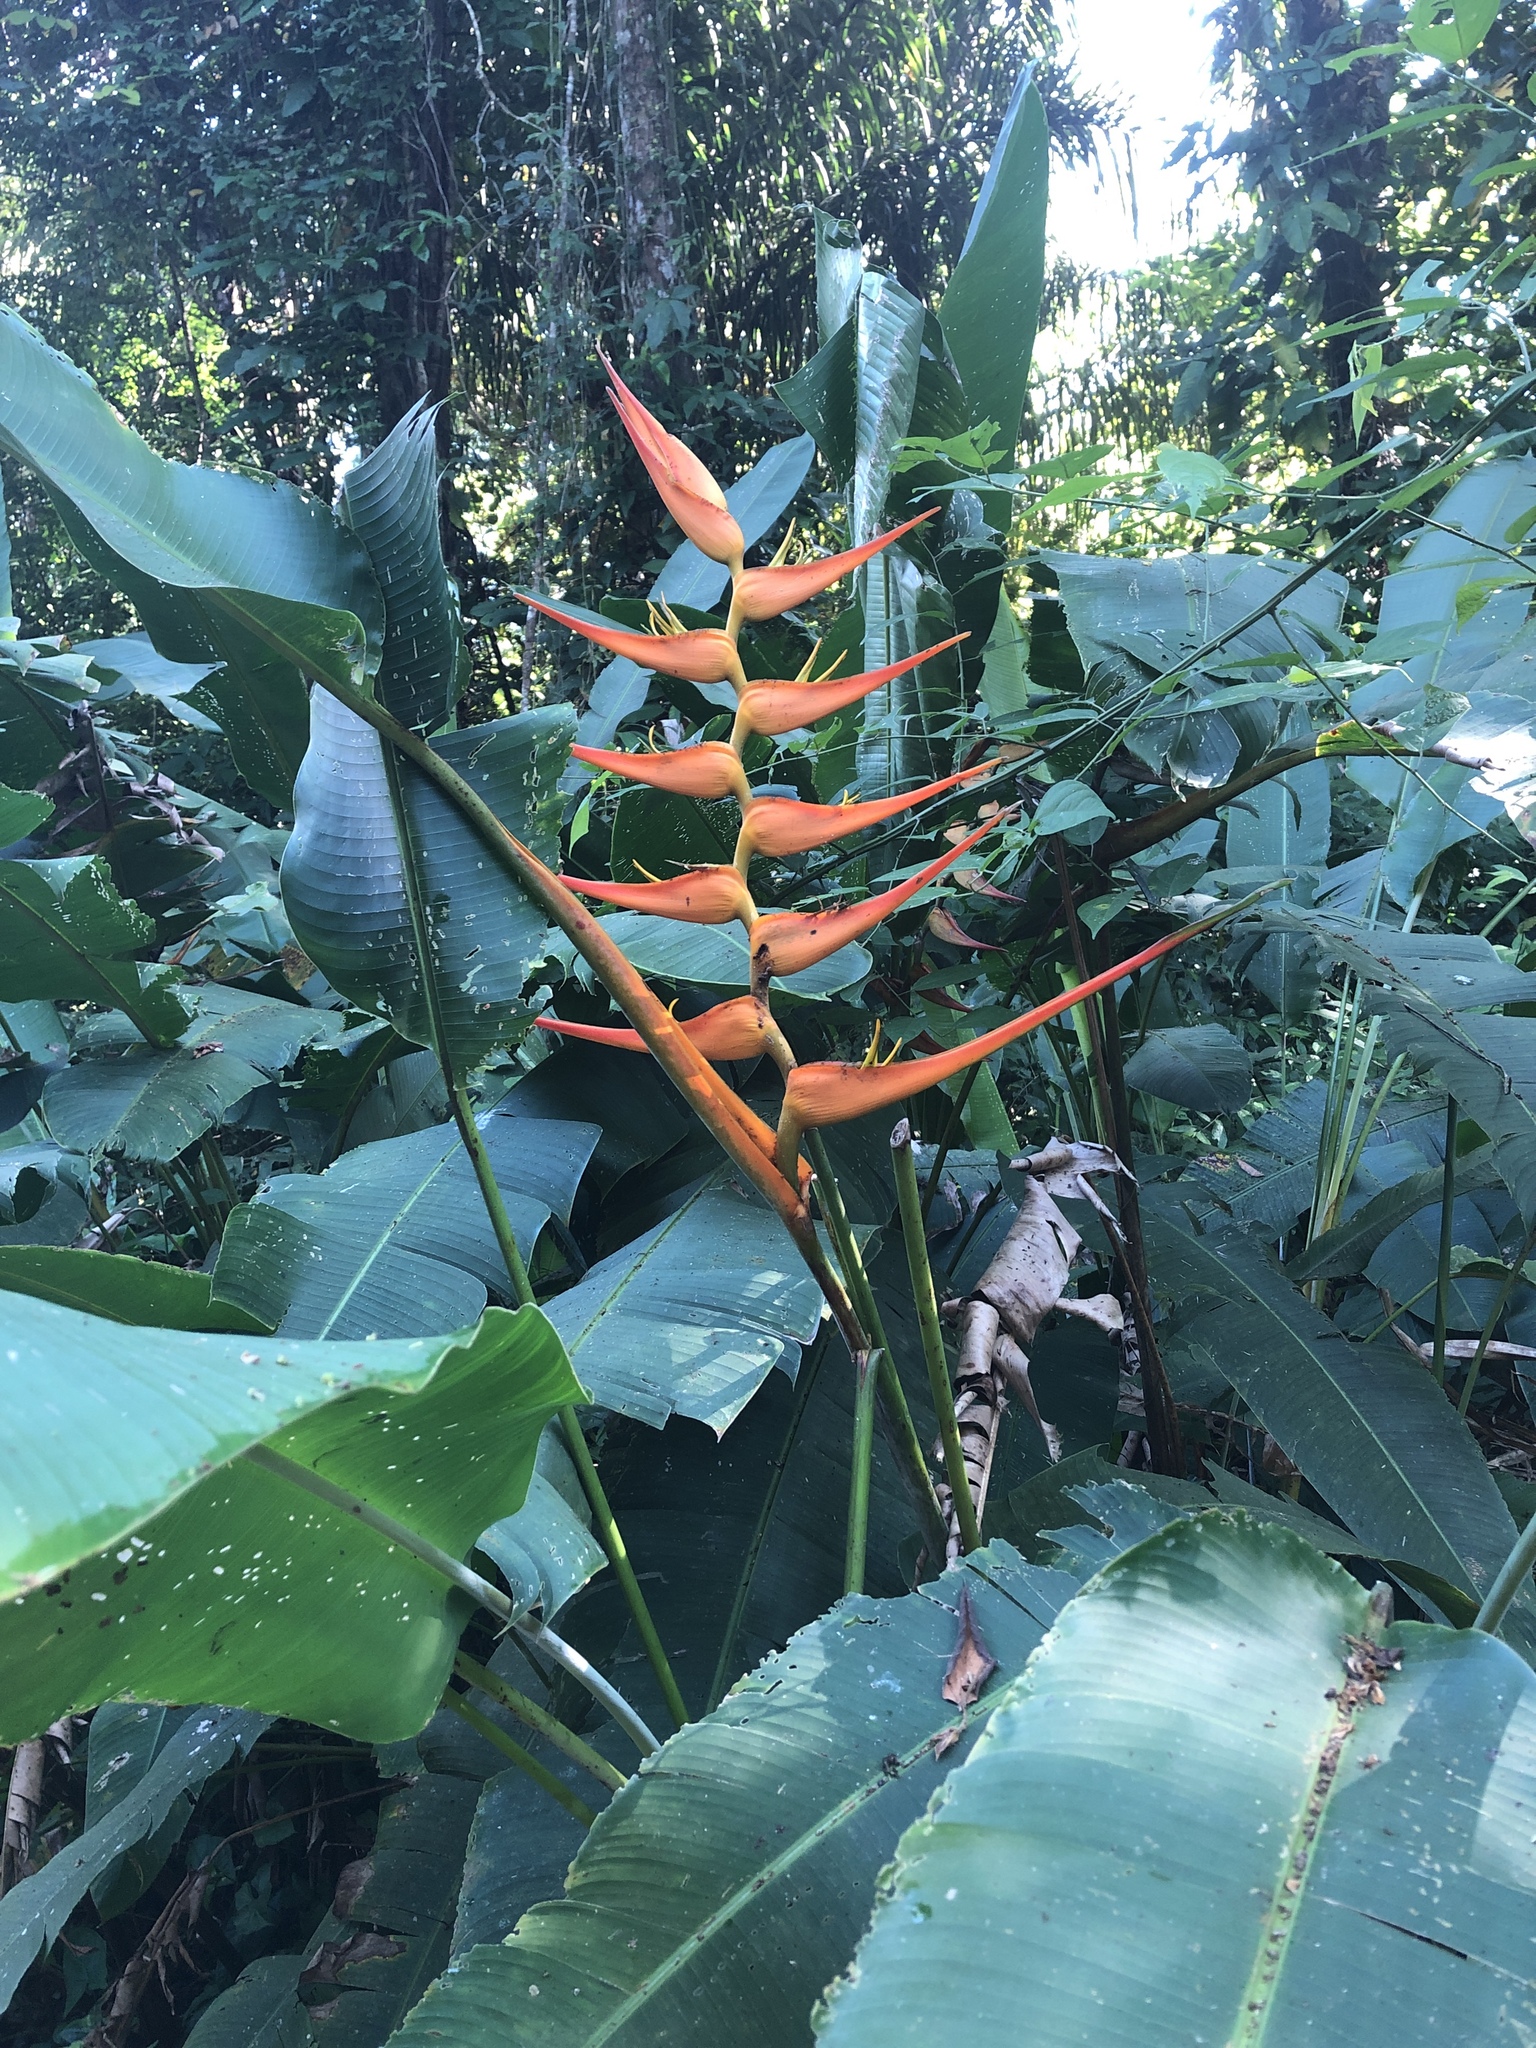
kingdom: Plantae
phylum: Tracheophyta
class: Liliopsida
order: Zingiberales
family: Heliconiaceae
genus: Heliconia
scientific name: Heliconia latispatha
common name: Expanded lobsterclaw
